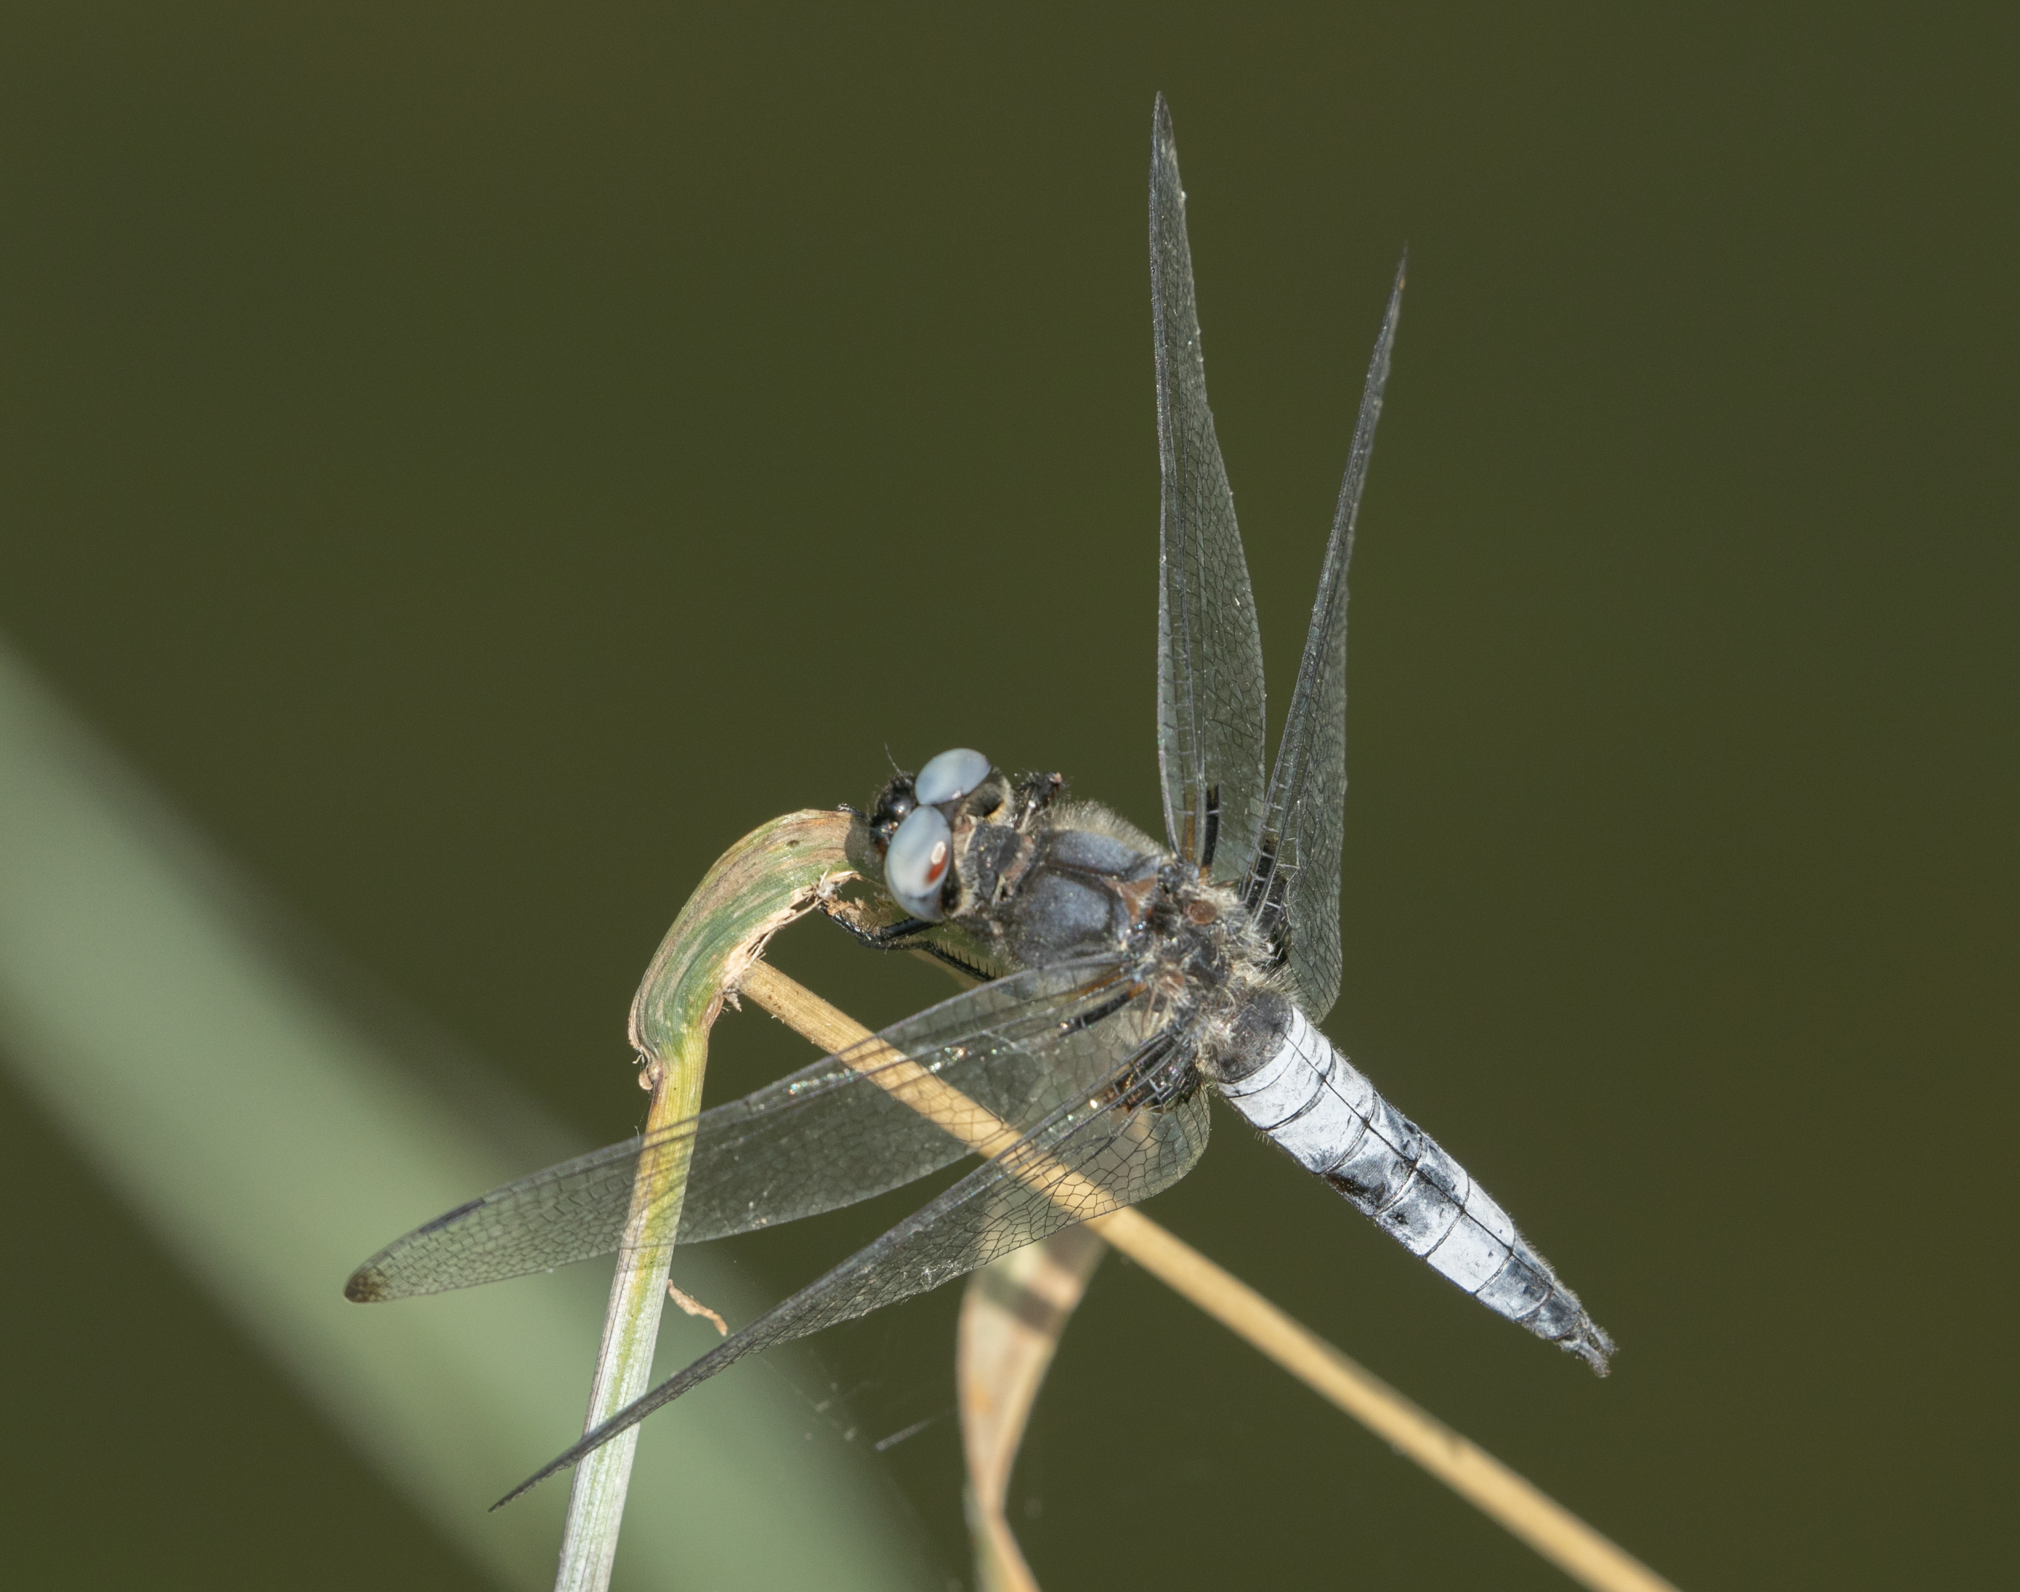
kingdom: Animalia
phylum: Arthropoda
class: Insecta
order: Odonata
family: Libellulidae
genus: Libellula
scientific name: Libellula fulva
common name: Blue chaser
